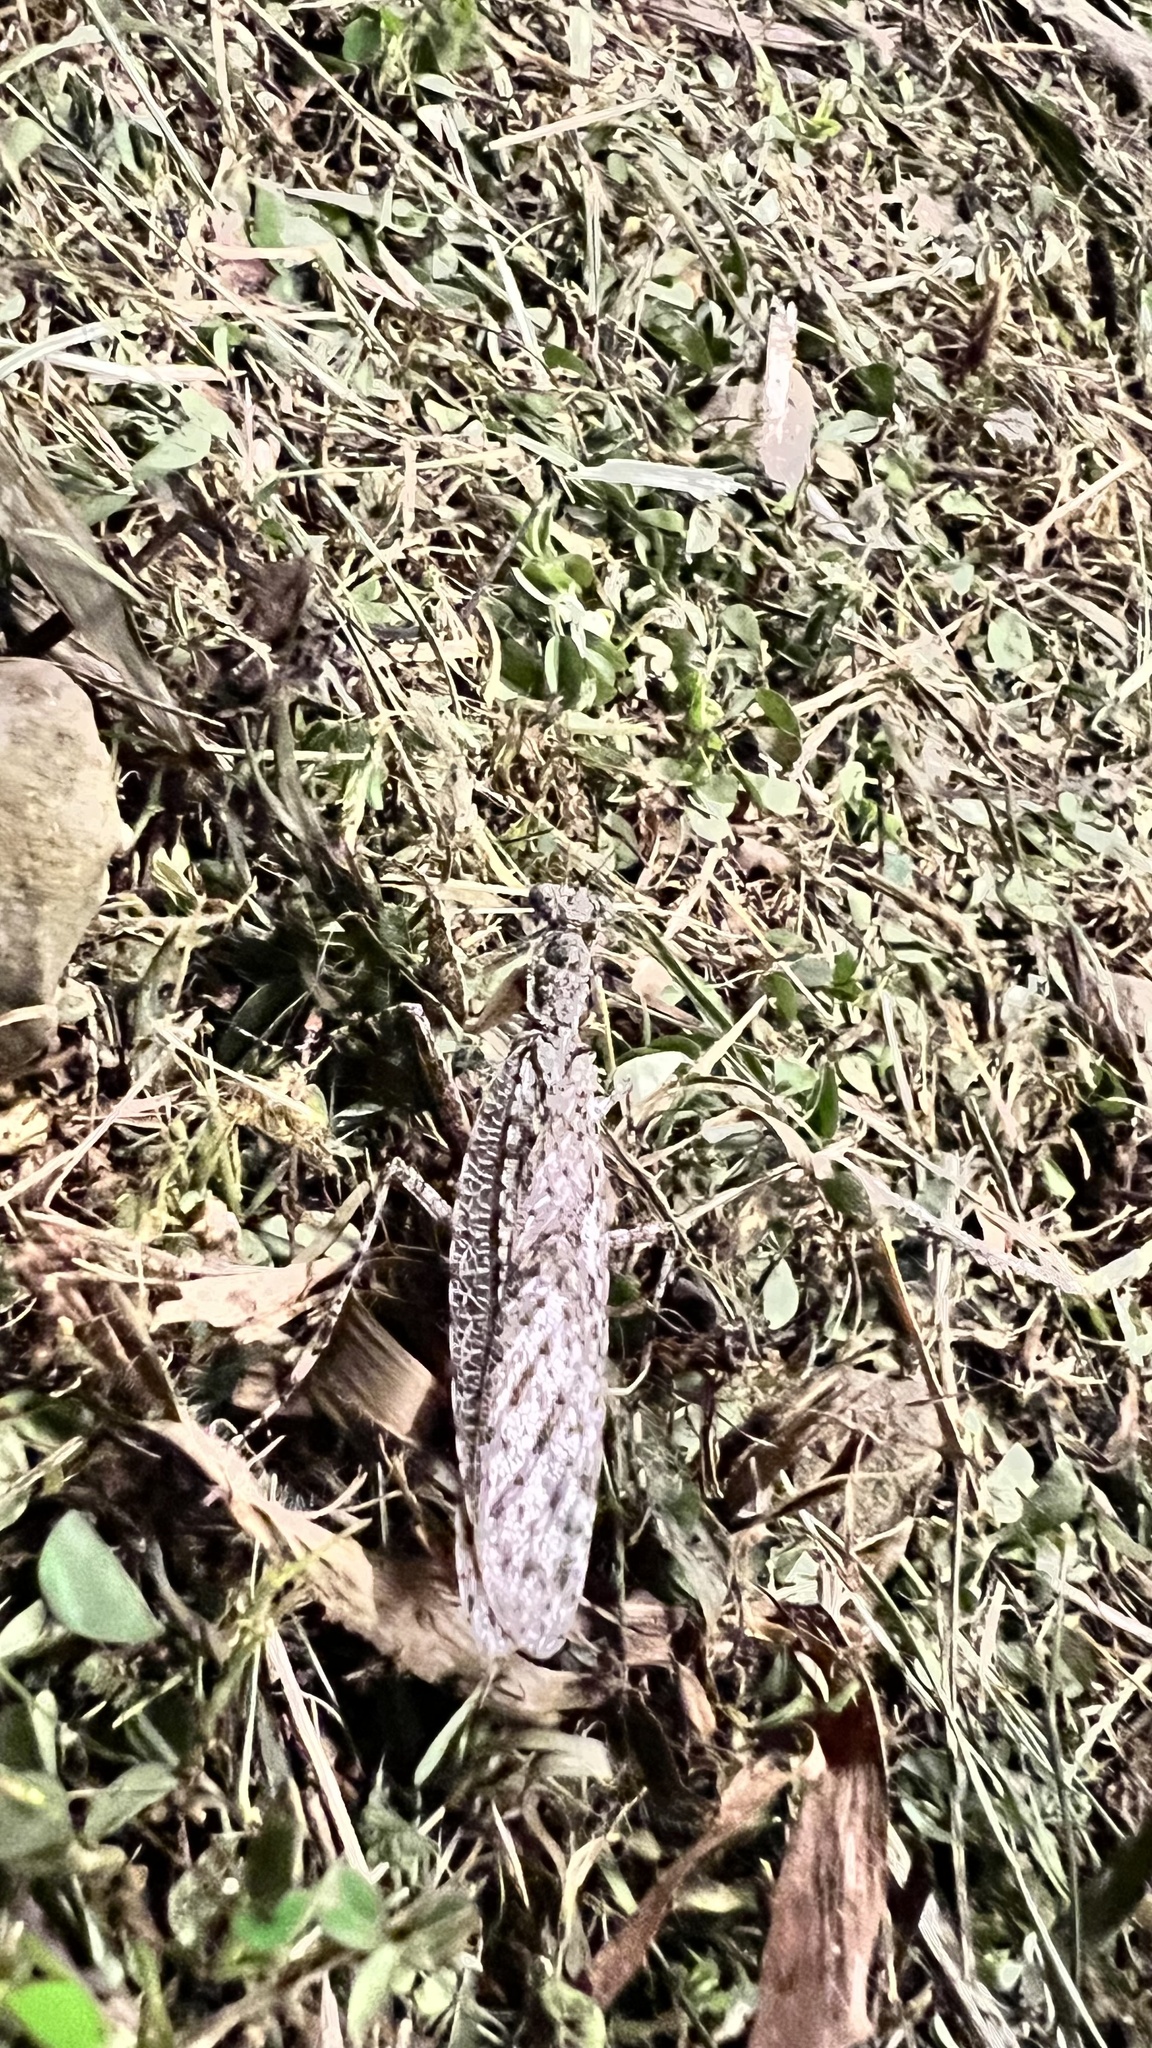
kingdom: Animalia
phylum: Arthropoda
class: Insecta
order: Mantodea
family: Gonypetidae
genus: Theopompa
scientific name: Theopompa ophthalmica
